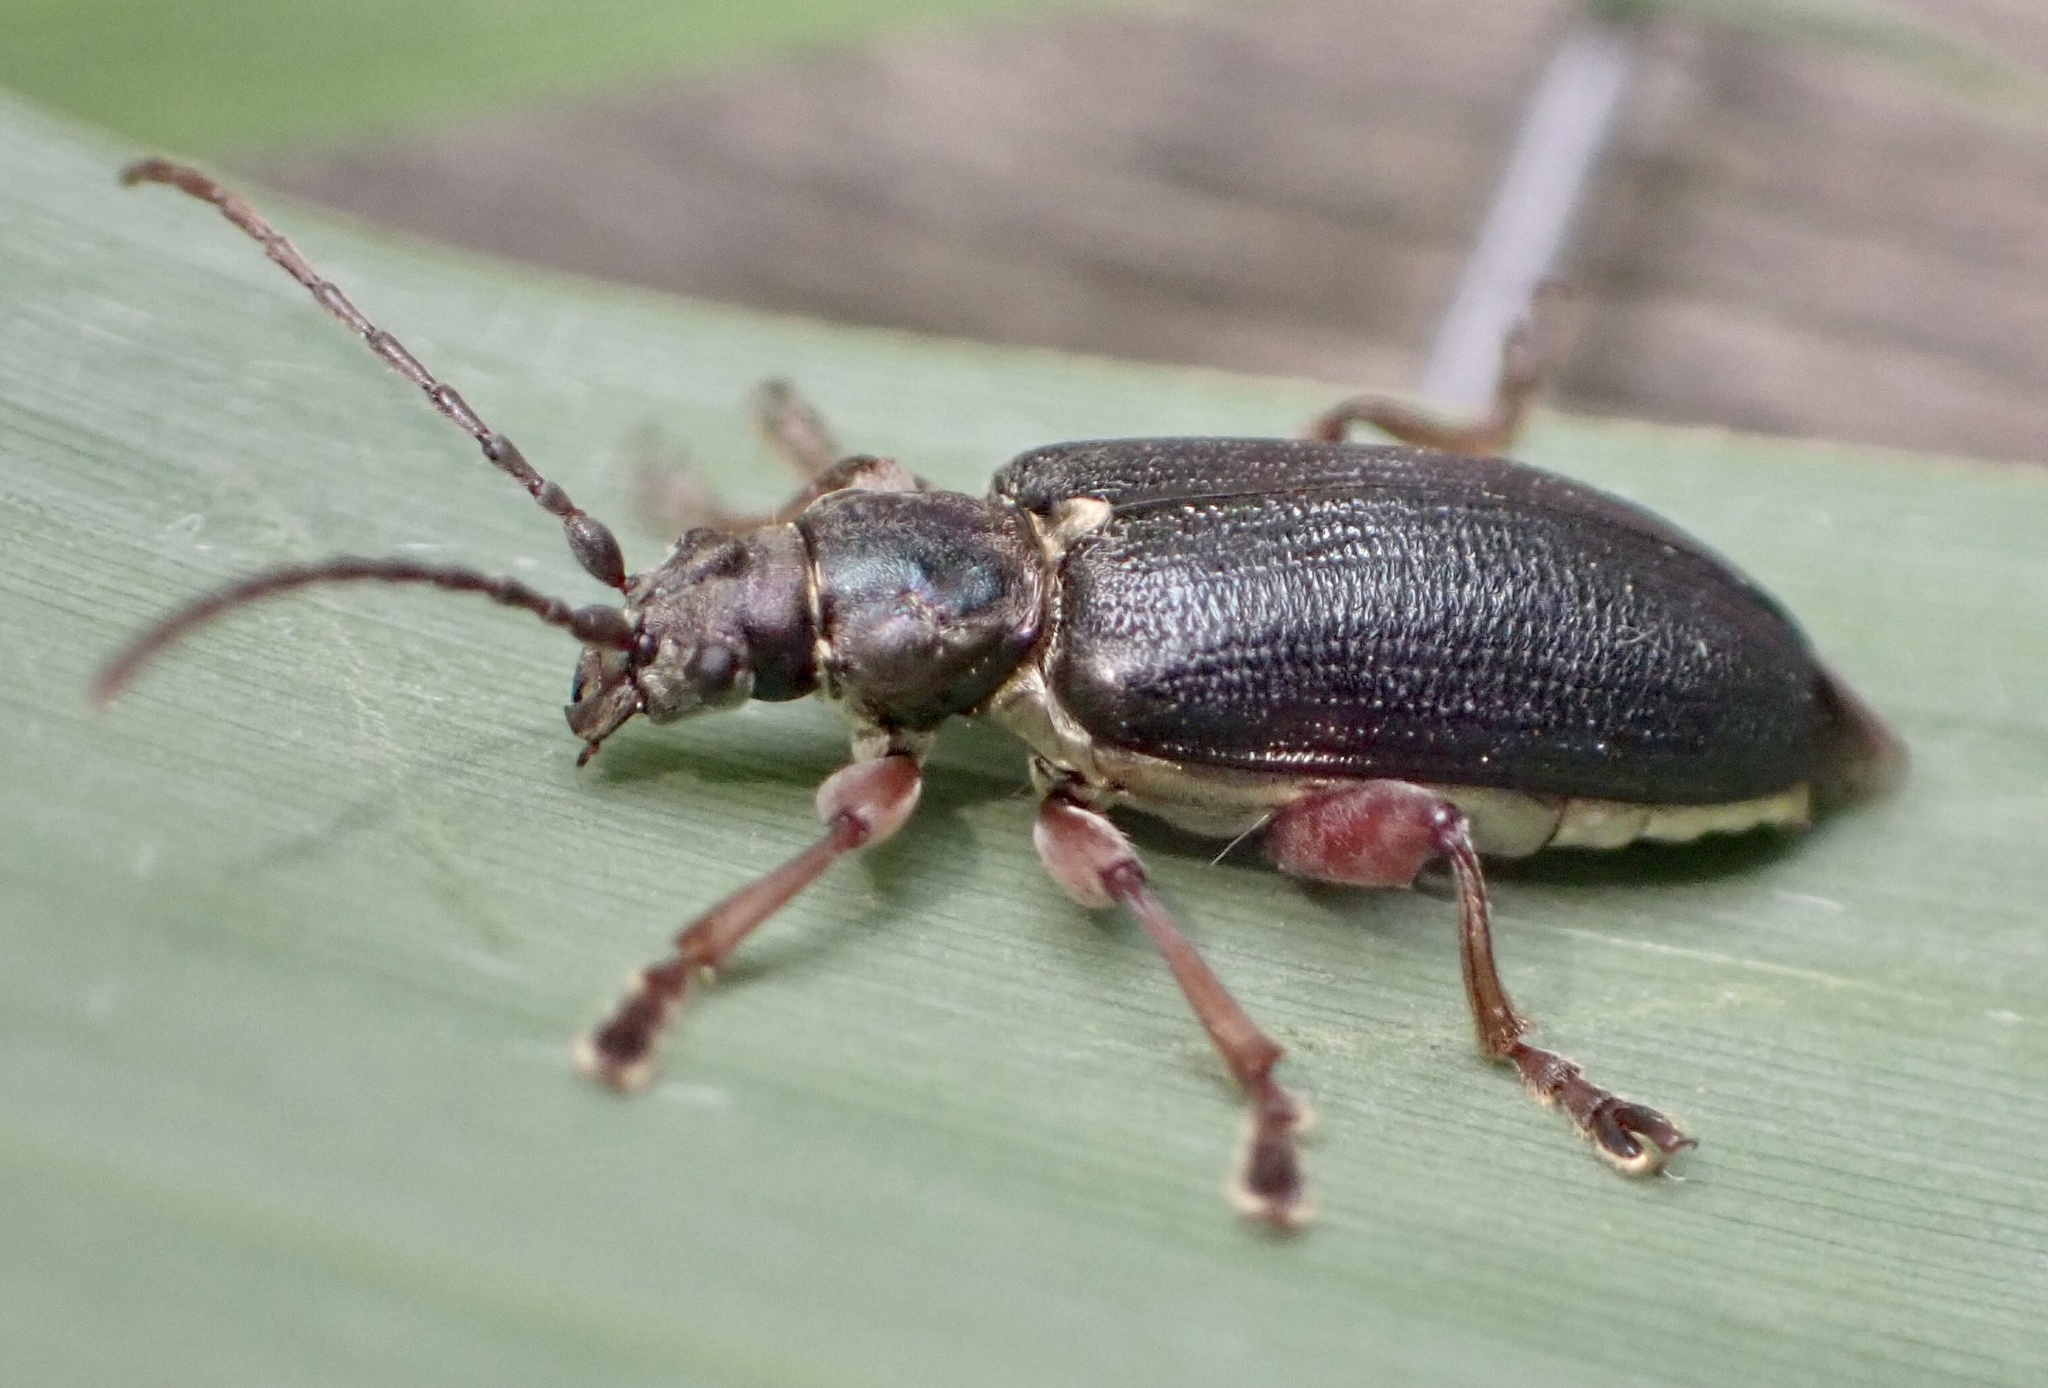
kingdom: Animalia
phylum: Arthropoda
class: Insecta
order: Coleoptera
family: Chrysomelidae
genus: Plateumaris
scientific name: Plateumaris braccata
